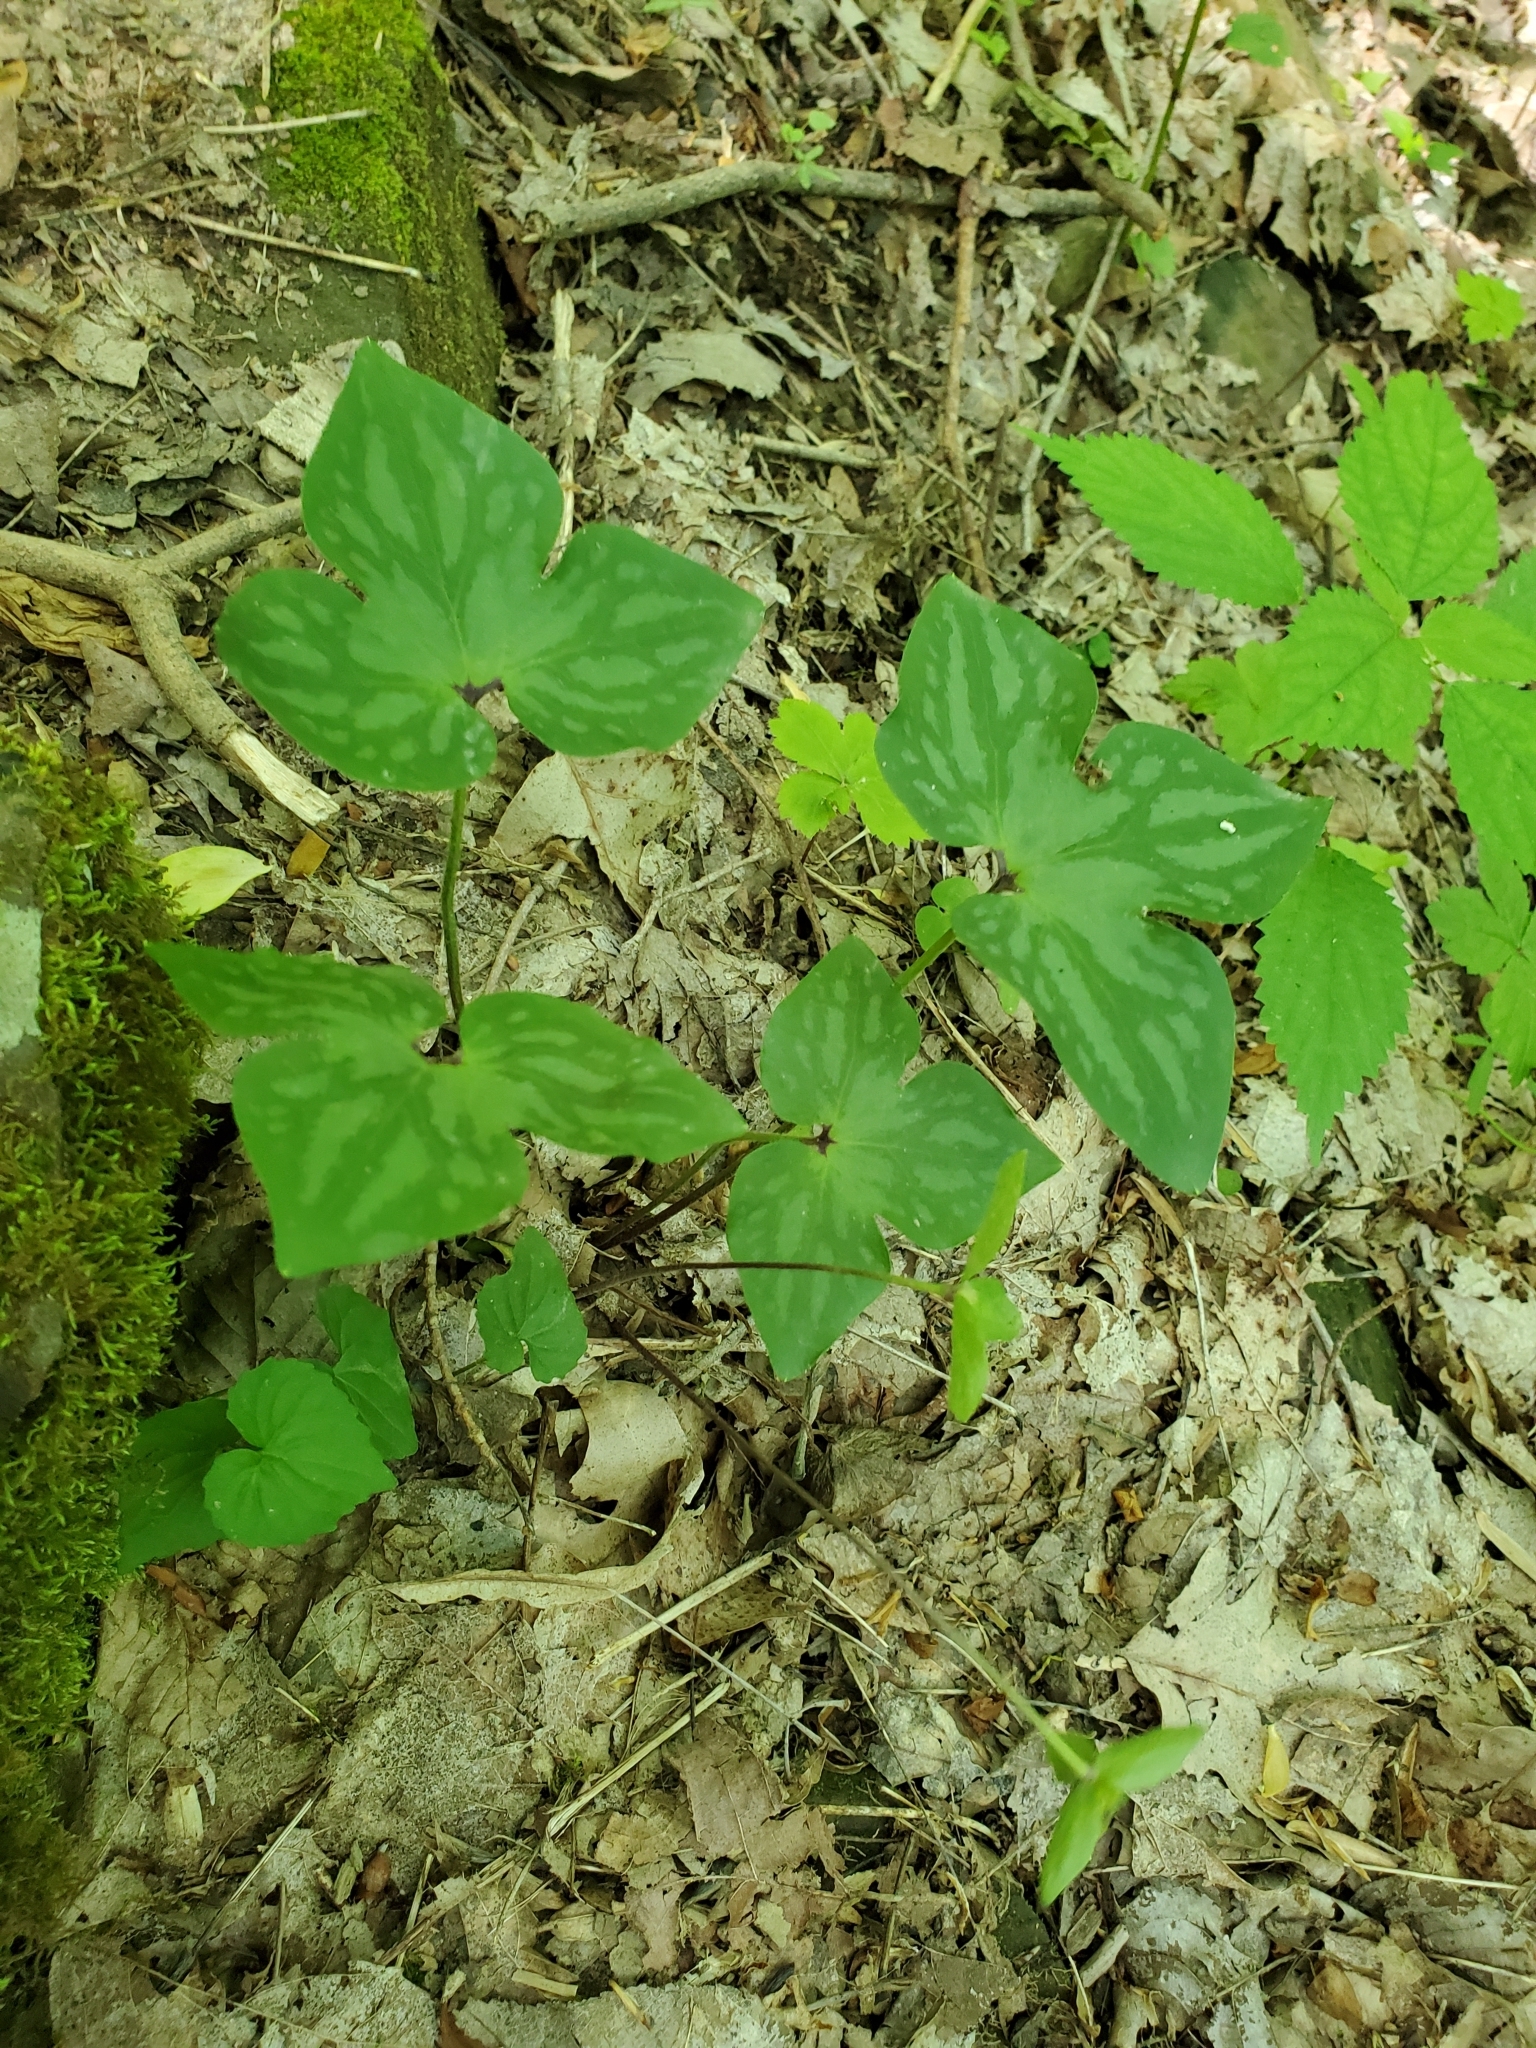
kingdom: Plantae
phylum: Tracheophyta
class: Magnoliopsida
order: Ranunculales
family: Ranunculaceae
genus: Hepatica
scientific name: Hepatica acutiloba
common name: Sharp-lobed hepatica
